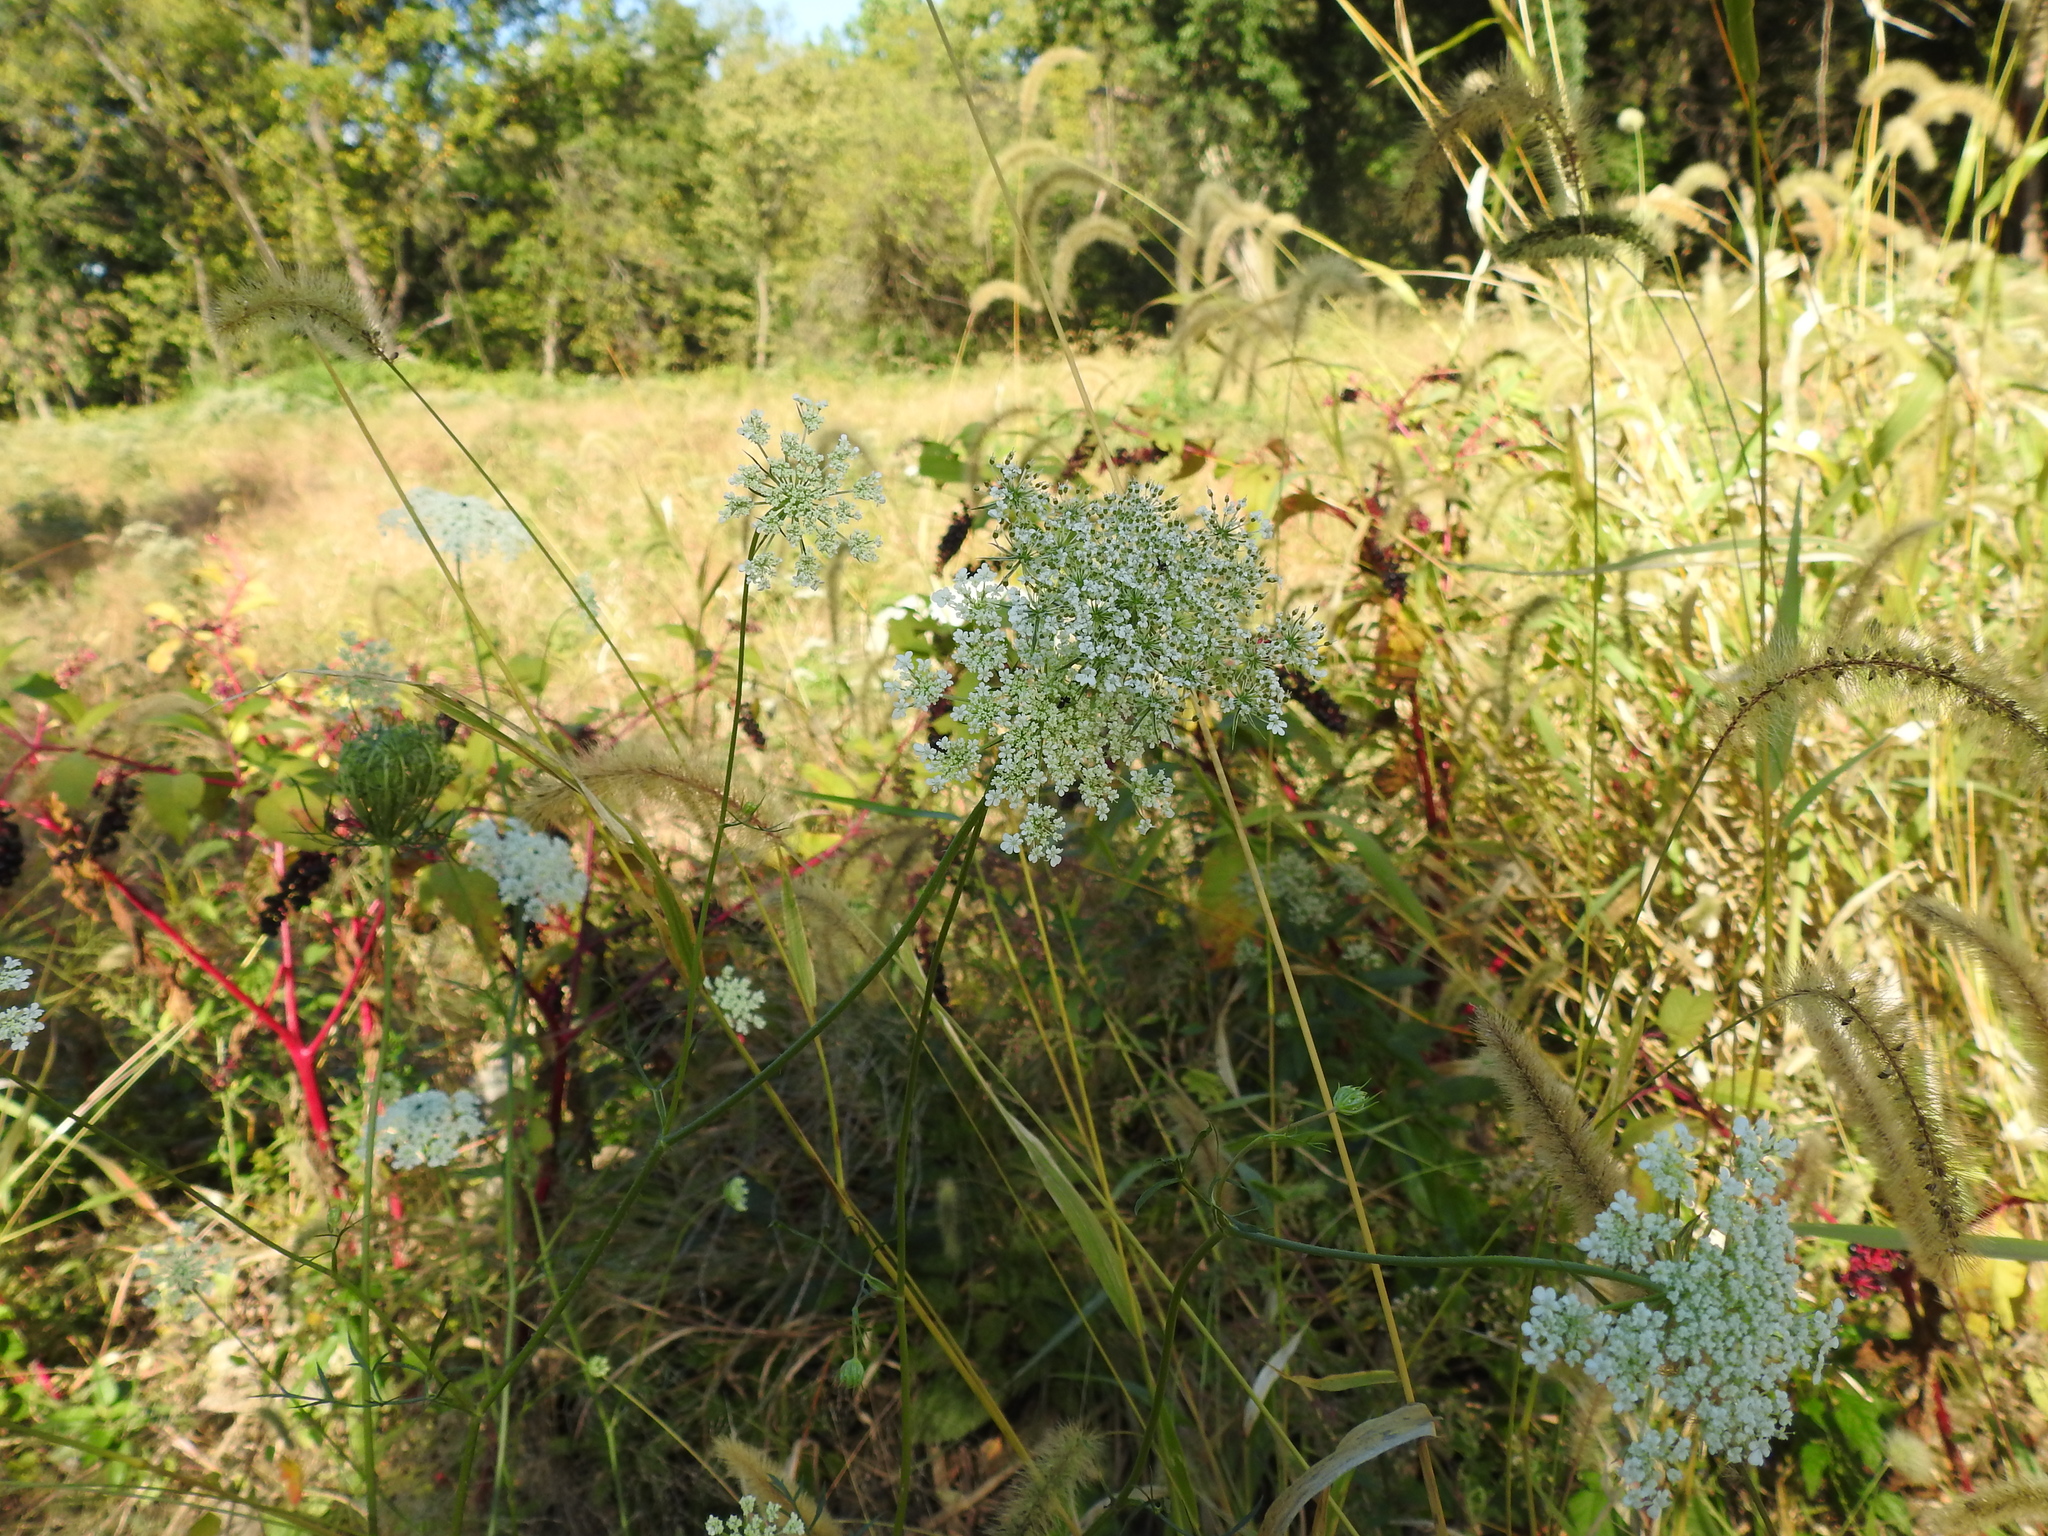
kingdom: Plantae
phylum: Tracheophyta
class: Magnoliopsida
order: Apiales
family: Apiaceae
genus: Daucus
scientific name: Daucus carota
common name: Wild carrot
